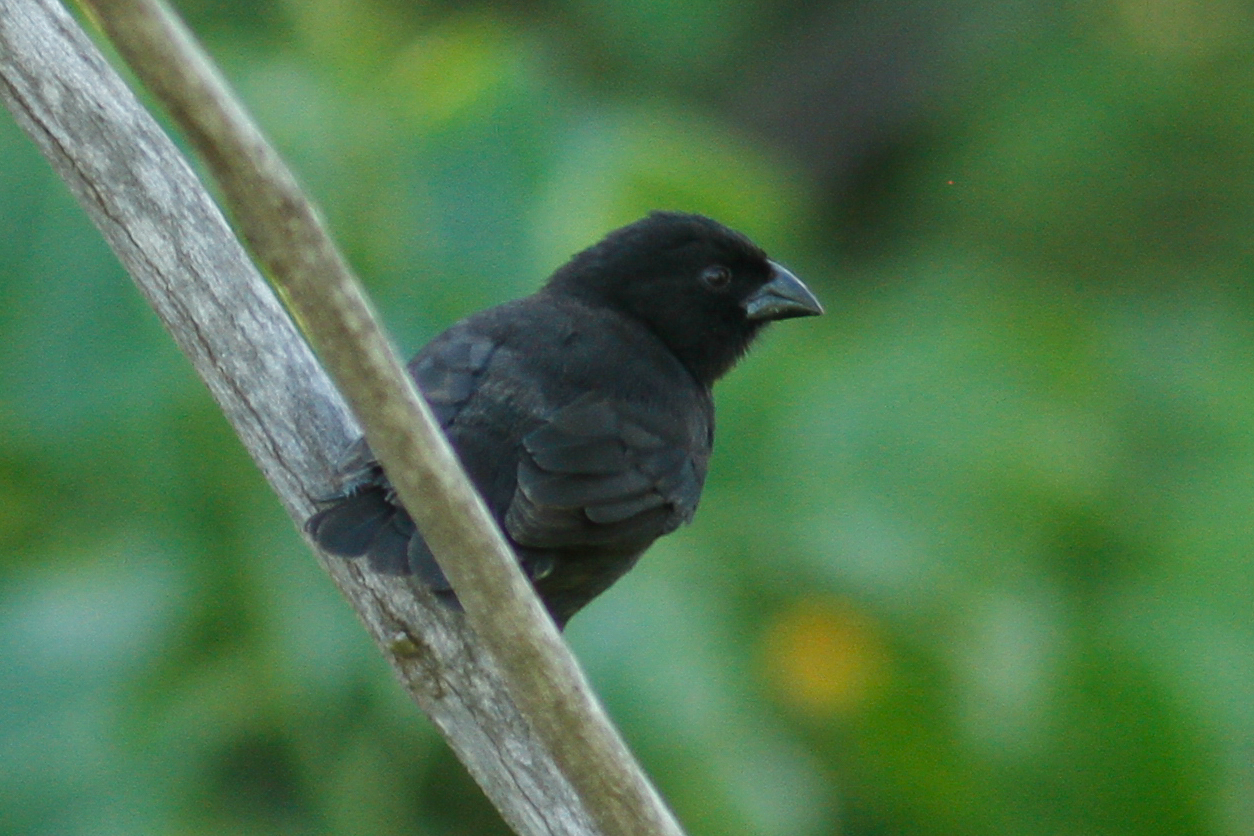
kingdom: Animalia
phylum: Chordata
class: Aves
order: Passeriformes
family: Thraupidae
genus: Geospiza
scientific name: Geospiza fuliginosa
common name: Small ground finch
